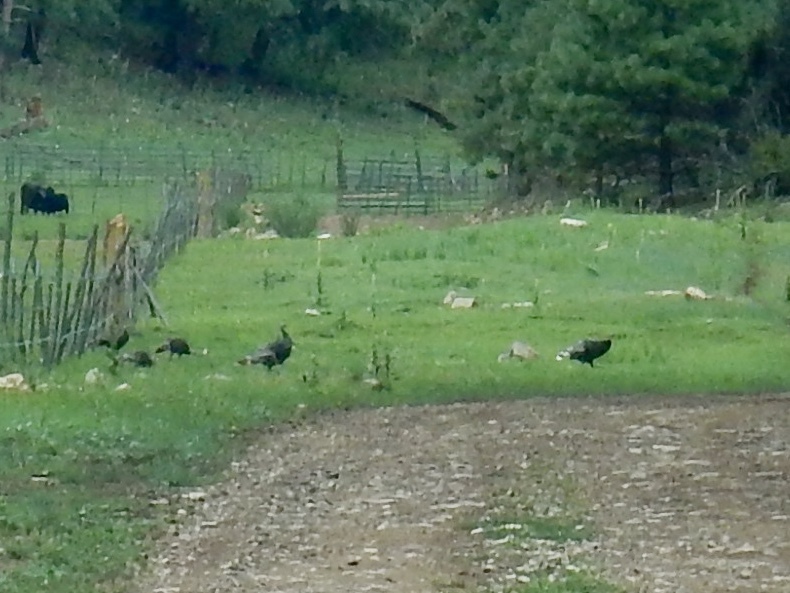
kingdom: Animalia
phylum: Chordata
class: Aves
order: Galliformes
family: Phasianidae
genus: Meleagris
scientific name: Meleagris gallopavo
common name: Wild turkey
